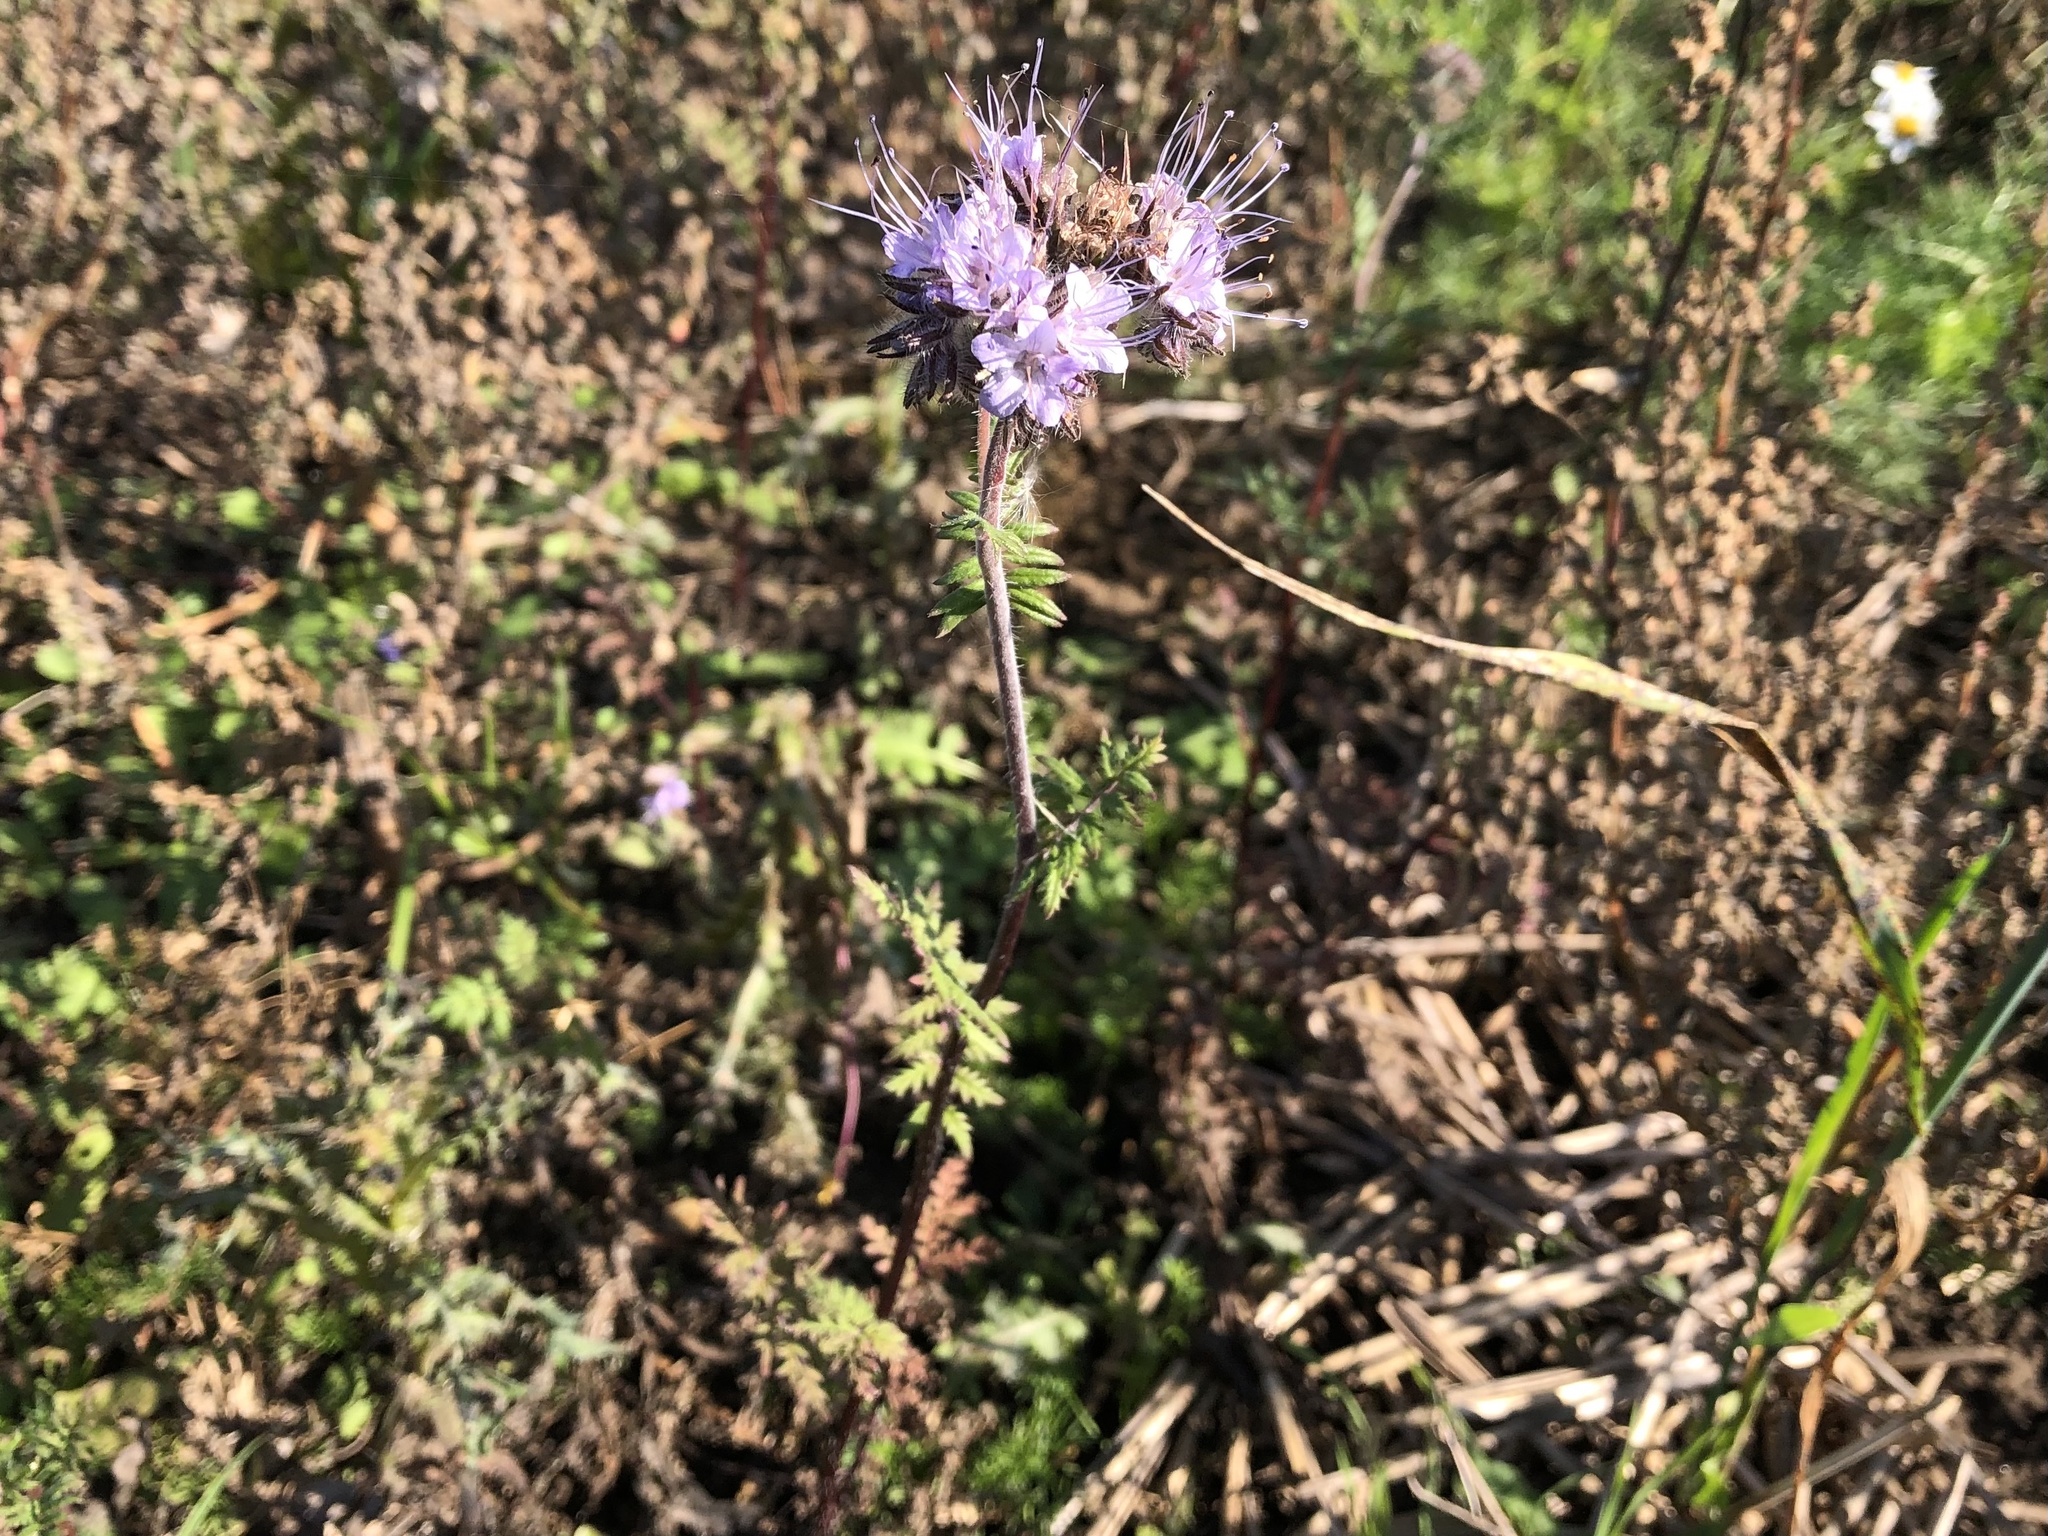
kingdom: Plantae
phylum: Tracheophyta
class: Magnoliopsida
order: Boraginales
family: Hydrophyllaceae
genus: Phacelia
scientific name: Phacelia tanacetifolia
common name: Phacelia
